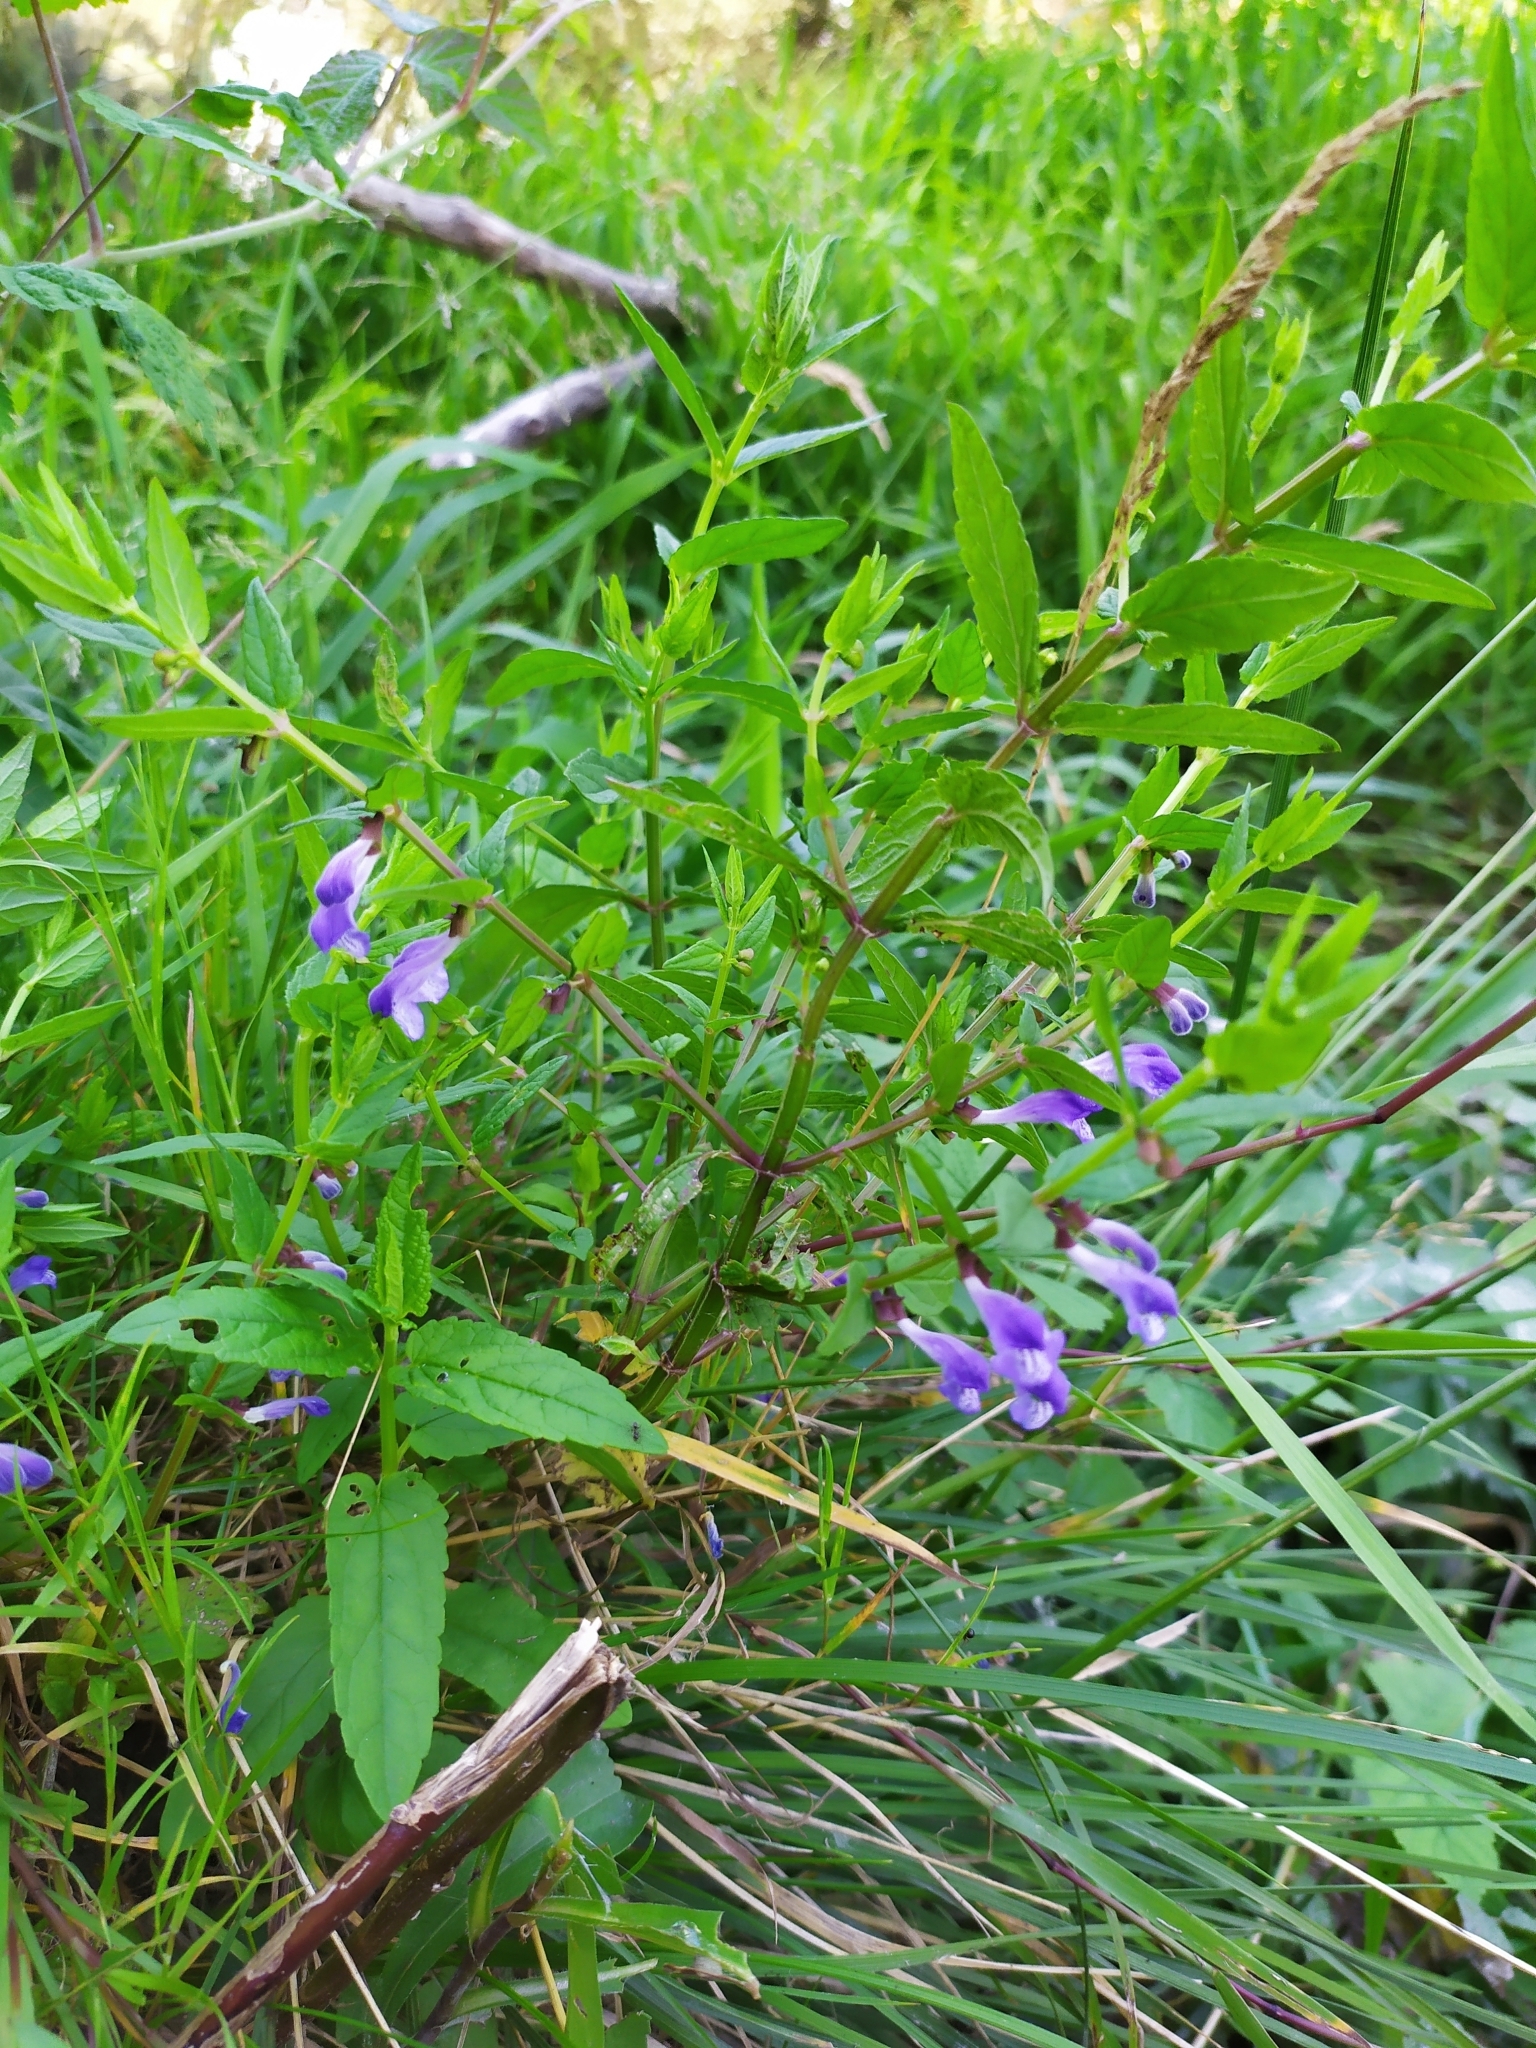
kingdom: Plantae
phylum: Tracheophyta
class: Magnoliopsida
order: Lamiales
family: Lamiaceae
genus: Scutellaria
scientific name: Scutellaria galericulata
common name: Skullcap
